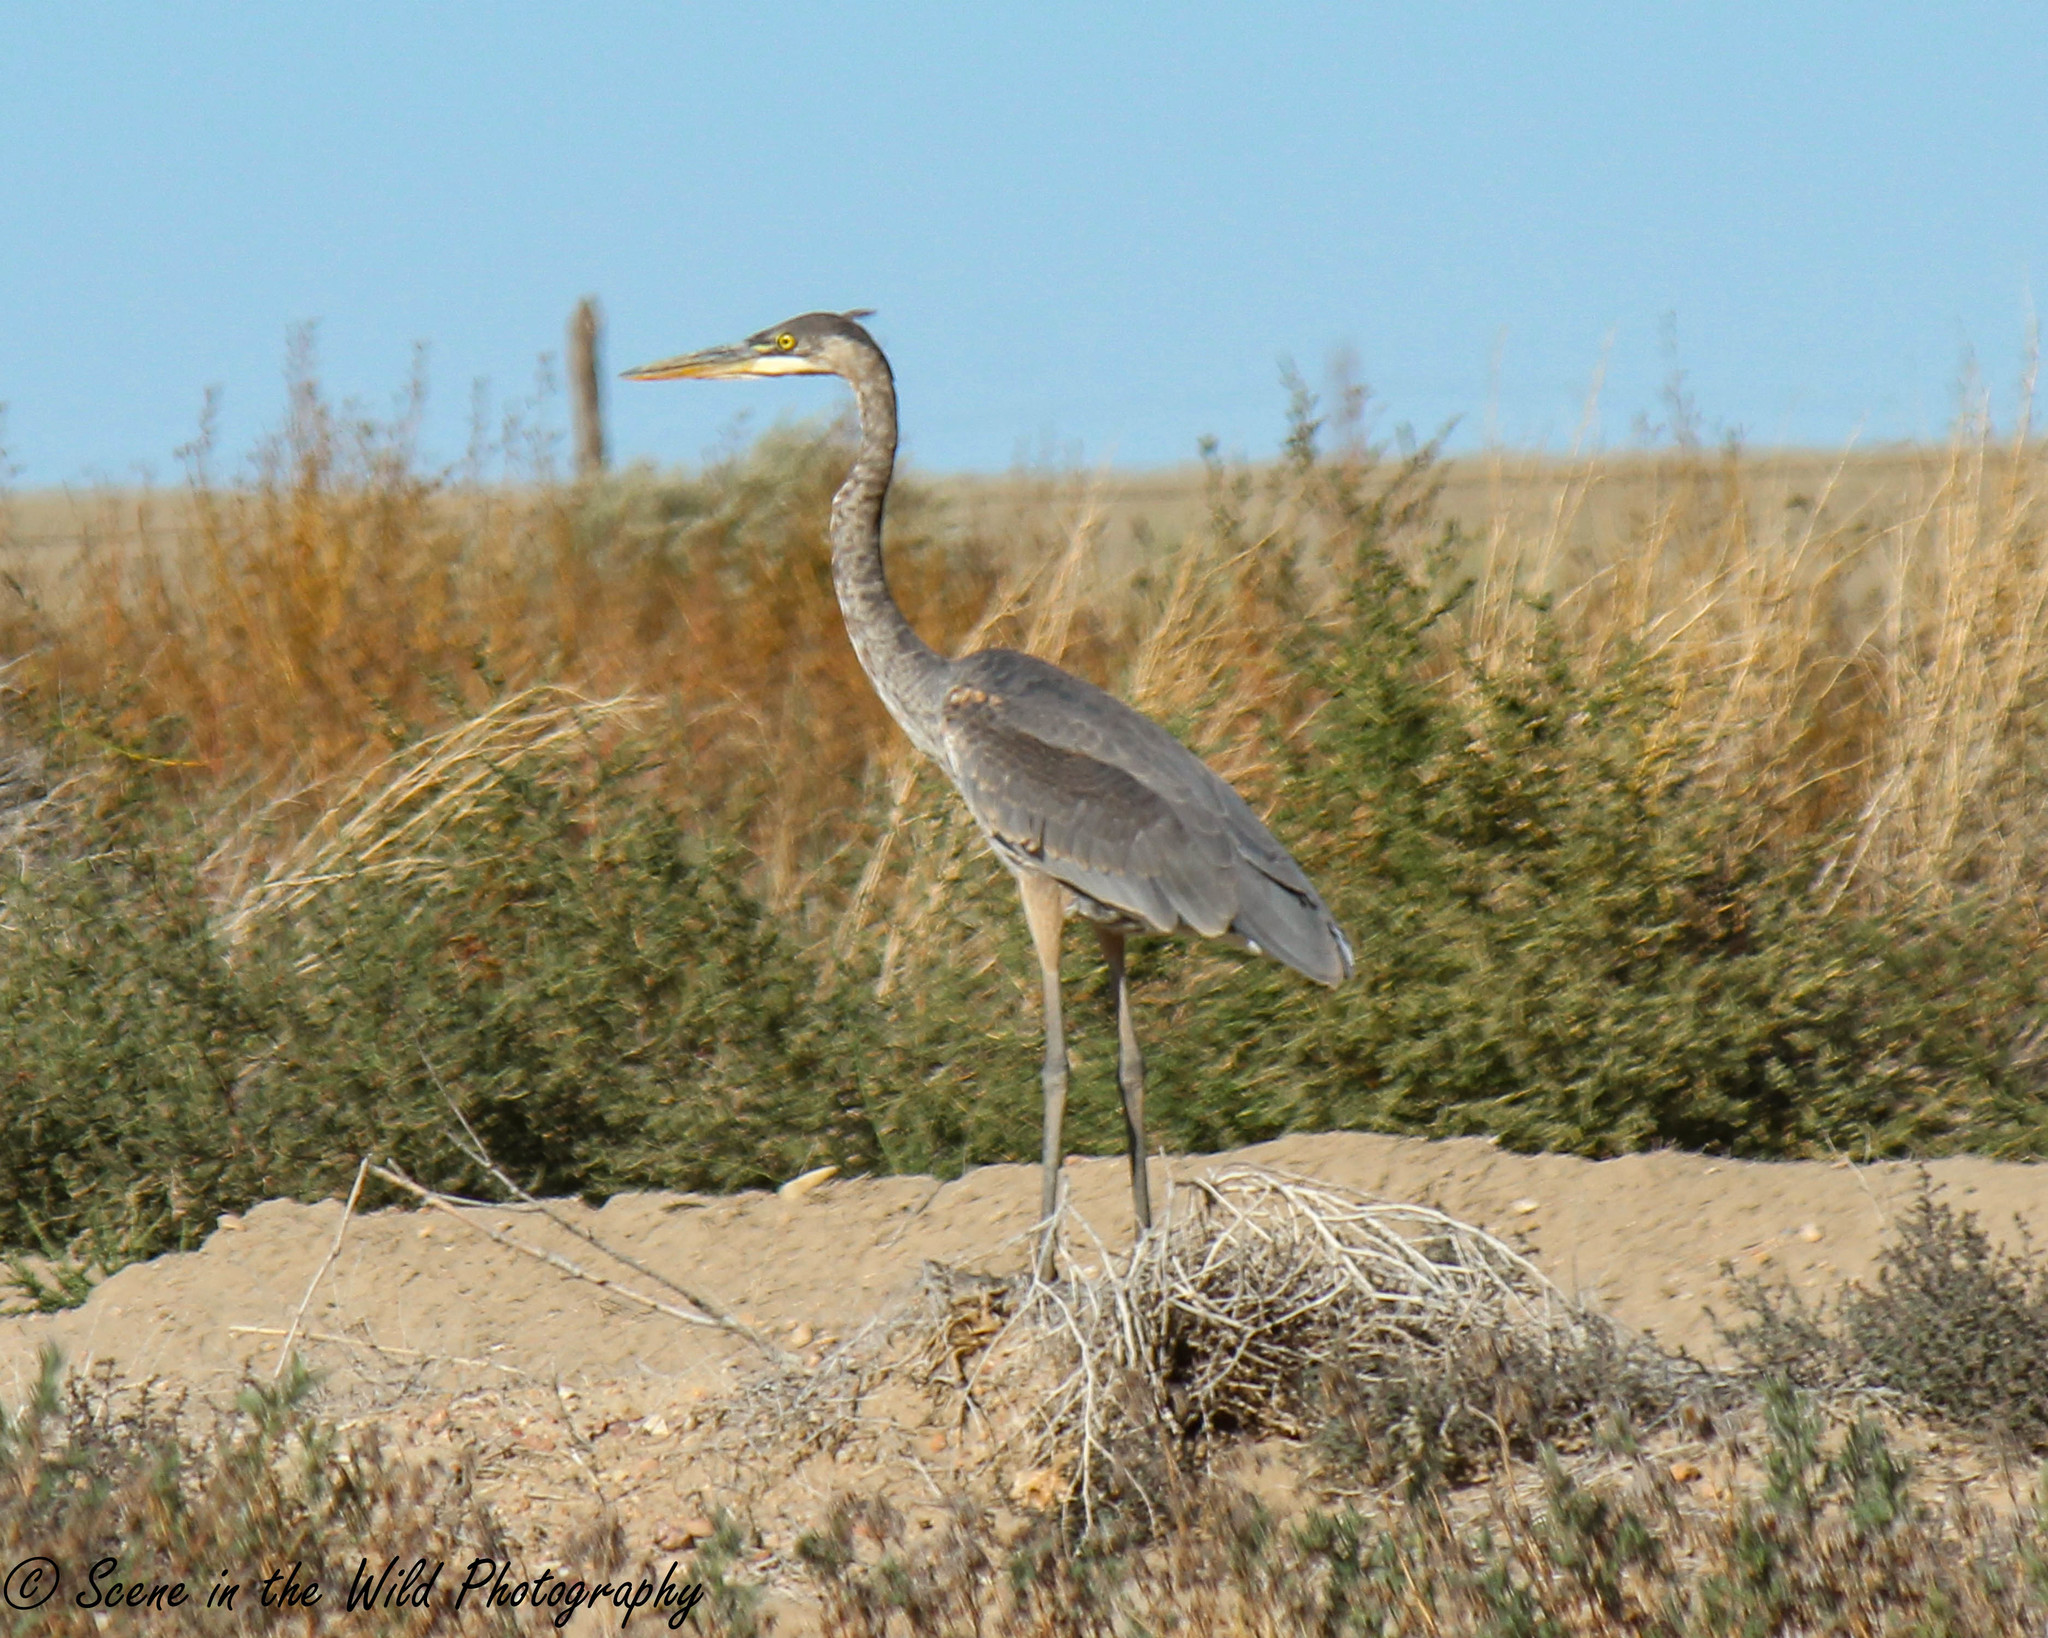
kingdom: Animalia
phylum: Chordata
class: Aves
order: Pelecaniformes
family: Ardeidae
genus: Ardea
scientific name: Ardea herodias
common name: Great blue heron
